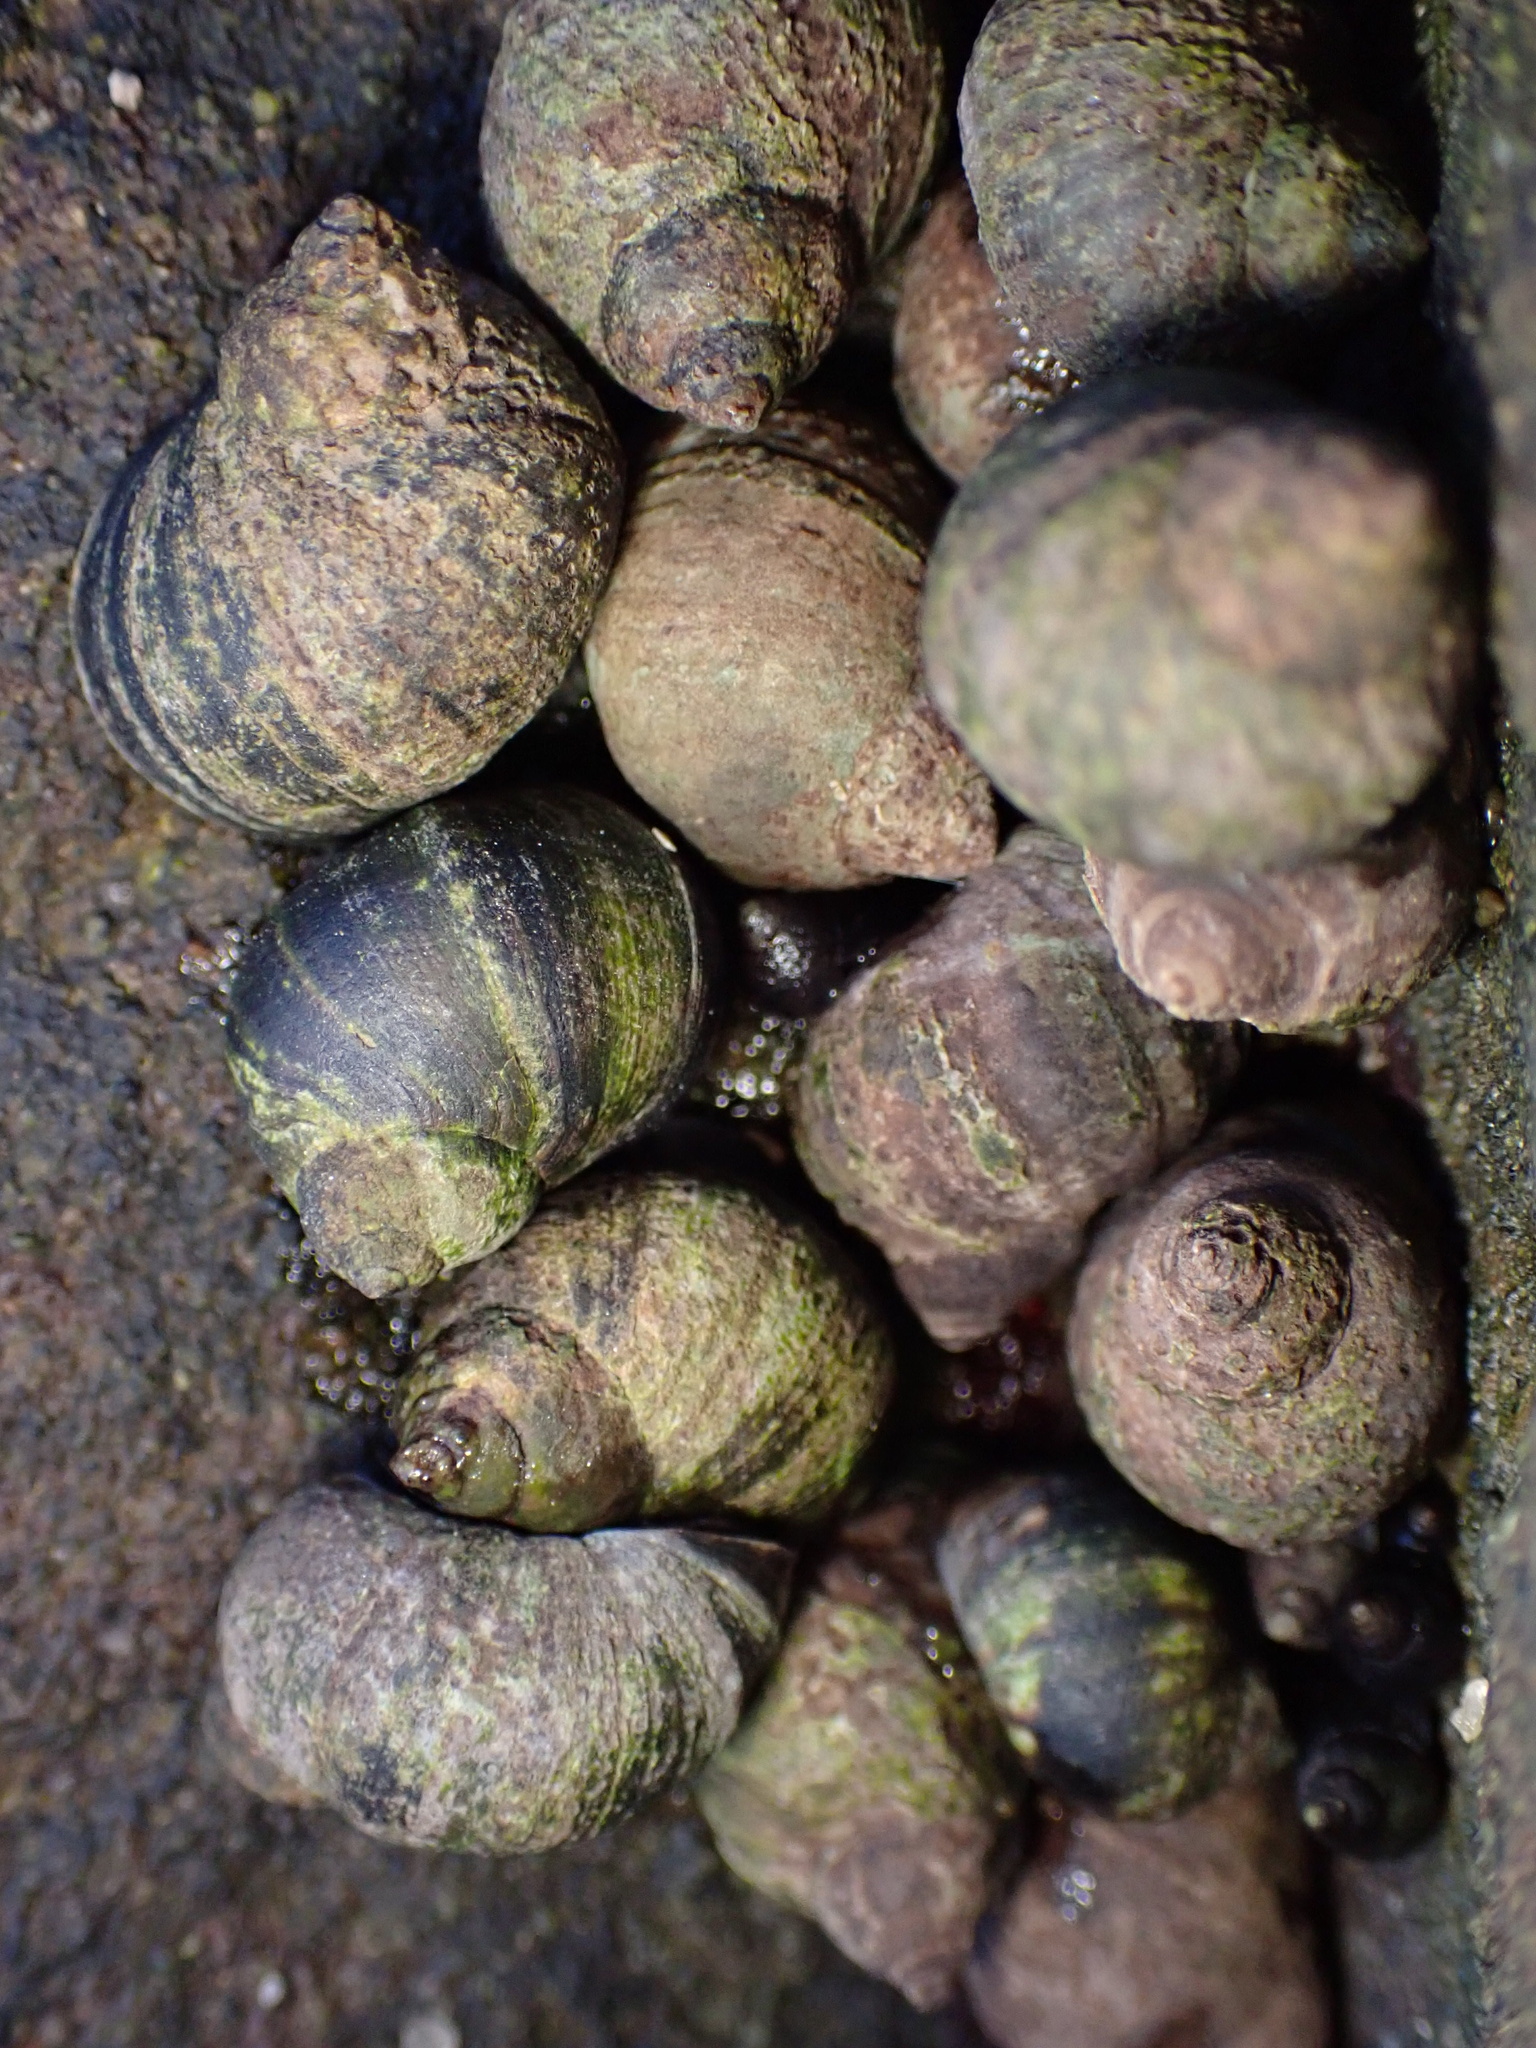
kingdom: Animalia
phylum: Mollusca
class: Gastropoda
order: Littorinimorpha
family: Littorinidae
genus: Littorina
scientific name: Littorina keenae
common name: Eroded periwinkle
